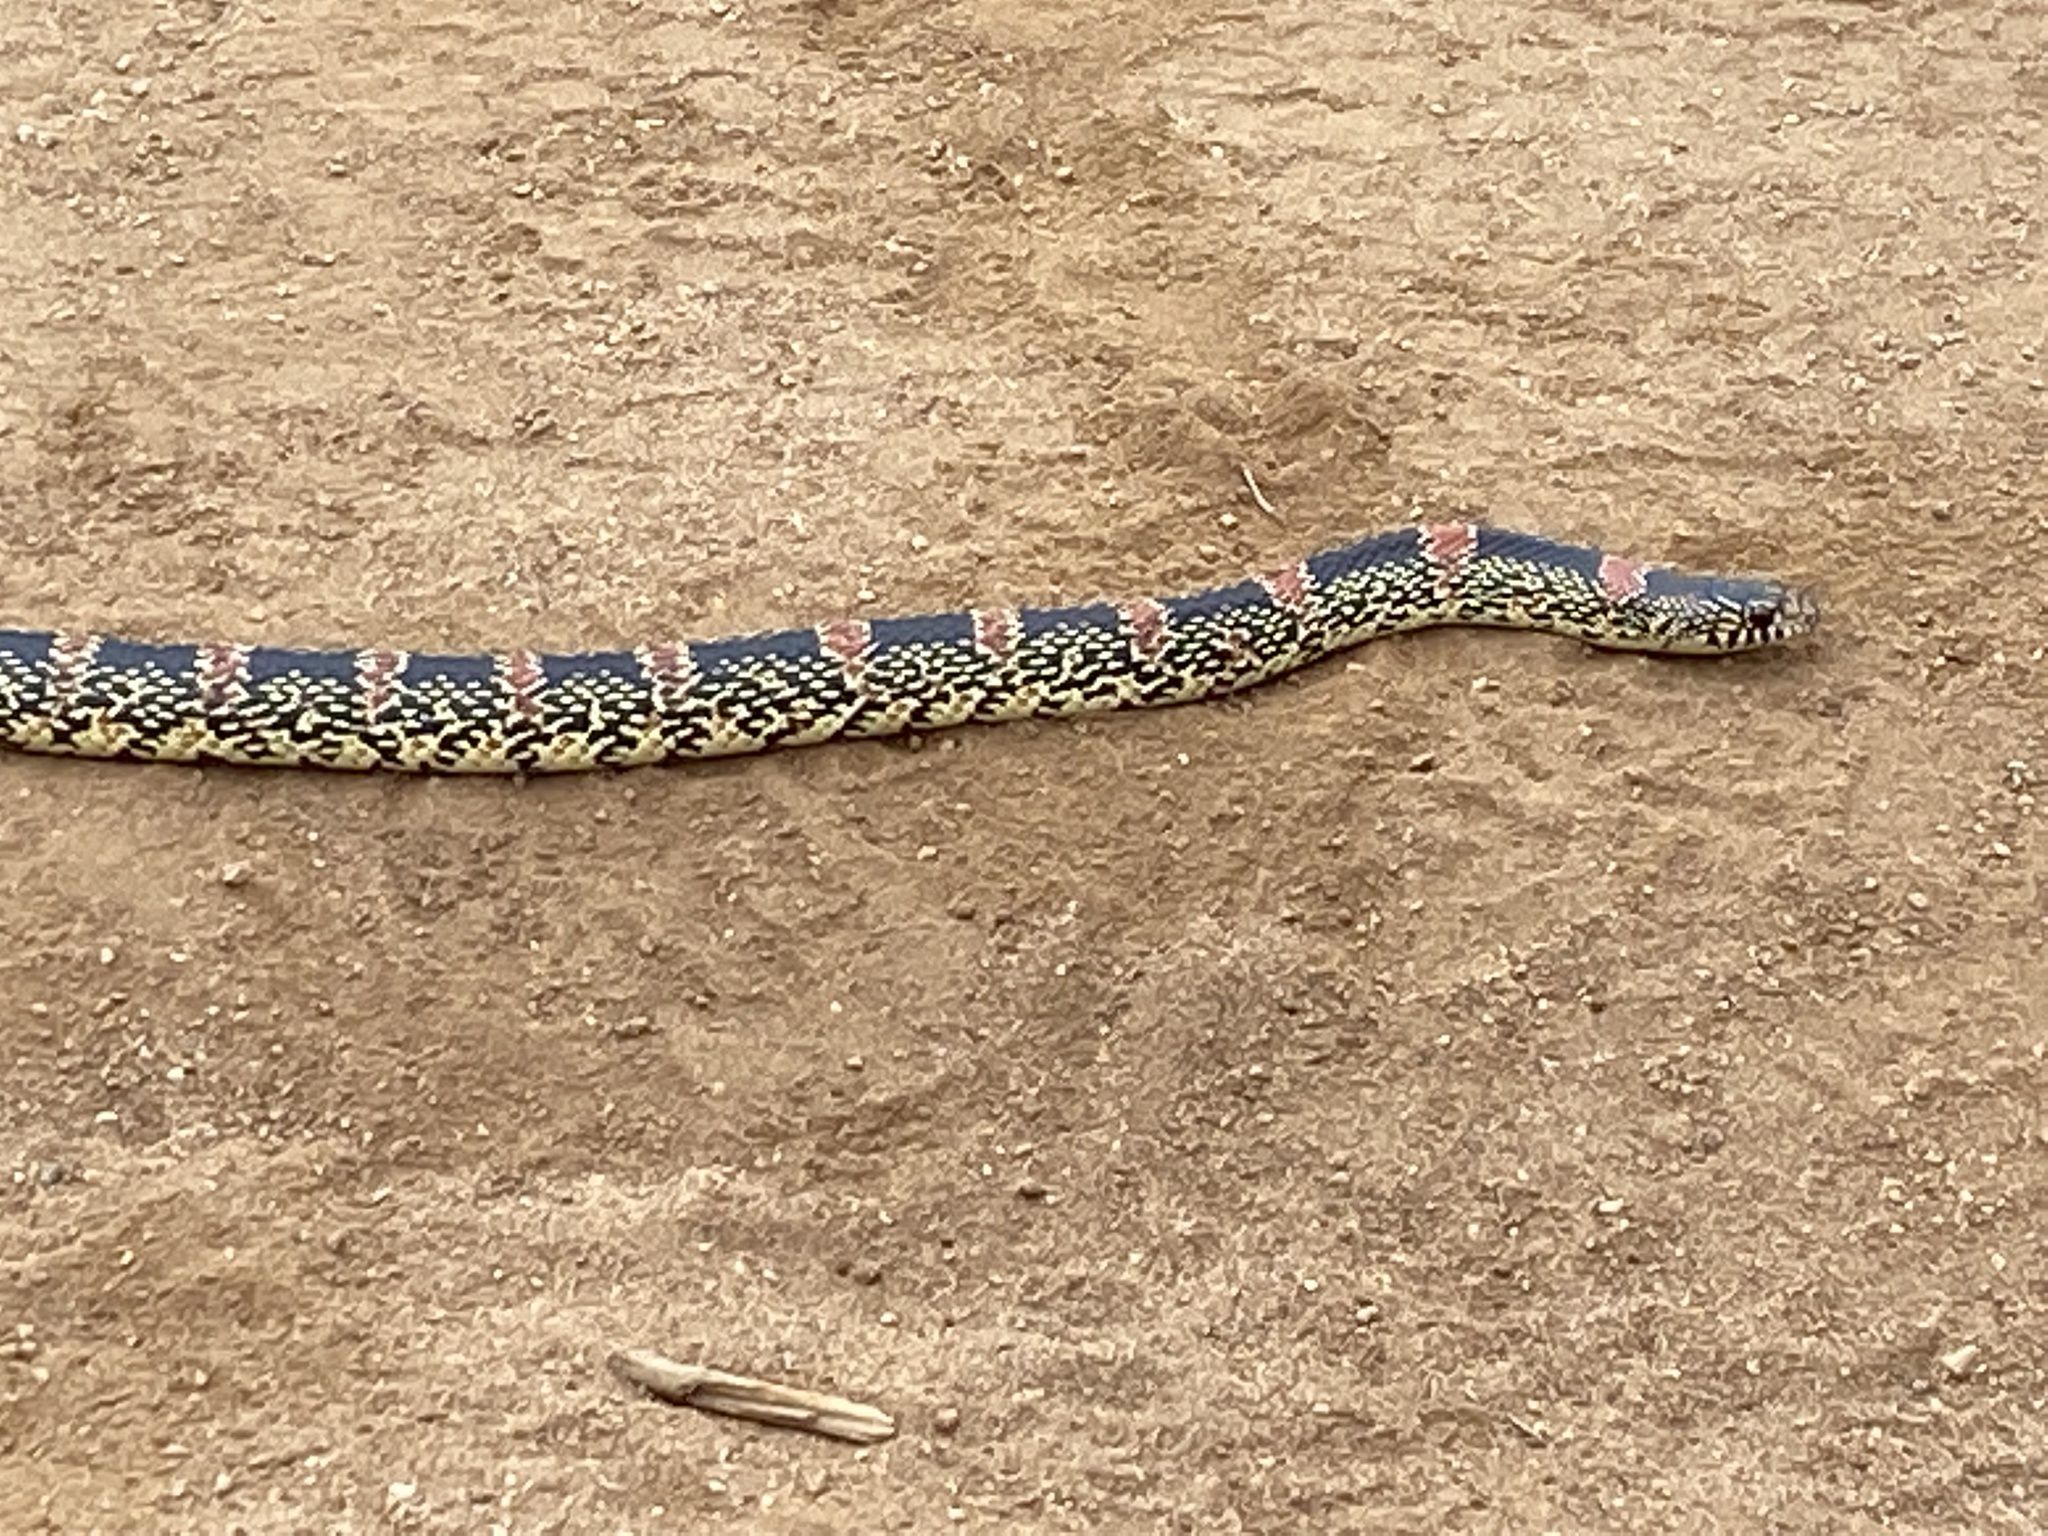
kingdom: Animalia
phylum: Chordata
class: Squamata
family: Colubridae
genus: Rhinocheilus
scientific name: Rhinocheilus lecontei
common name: Longnose snake
